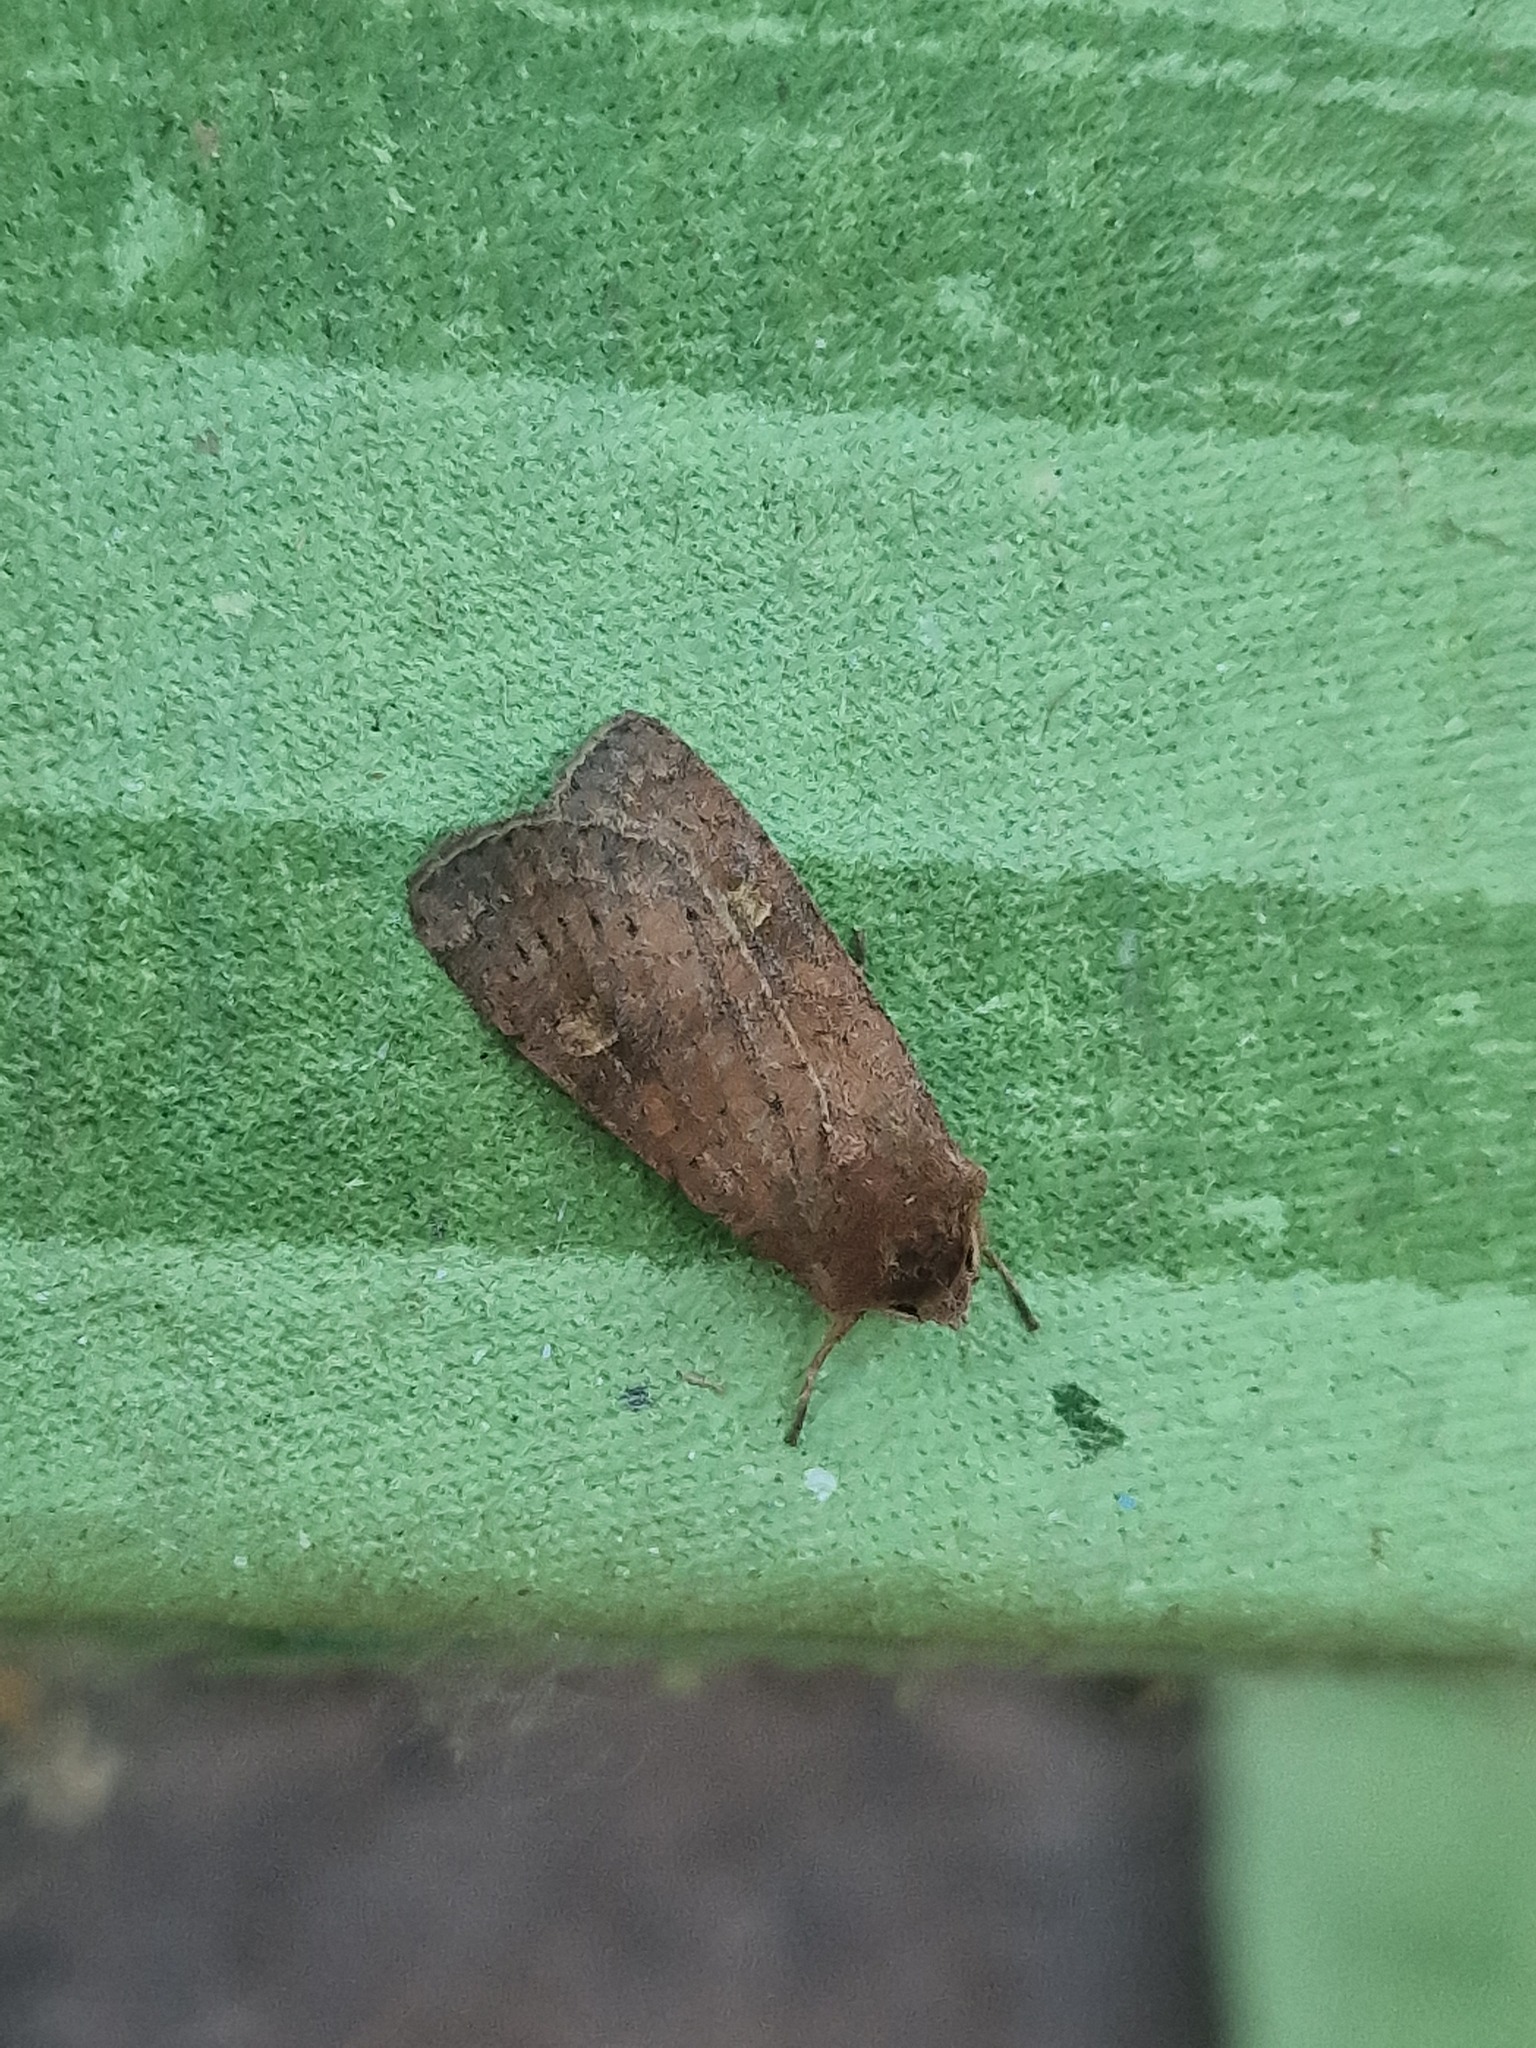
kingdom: Animalia
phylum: Arthropoda
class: Insecta
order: Lepidoptera
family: Noctuidae
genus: Xestia
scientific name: Xestia xanthographa
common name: Square-spot rustic
